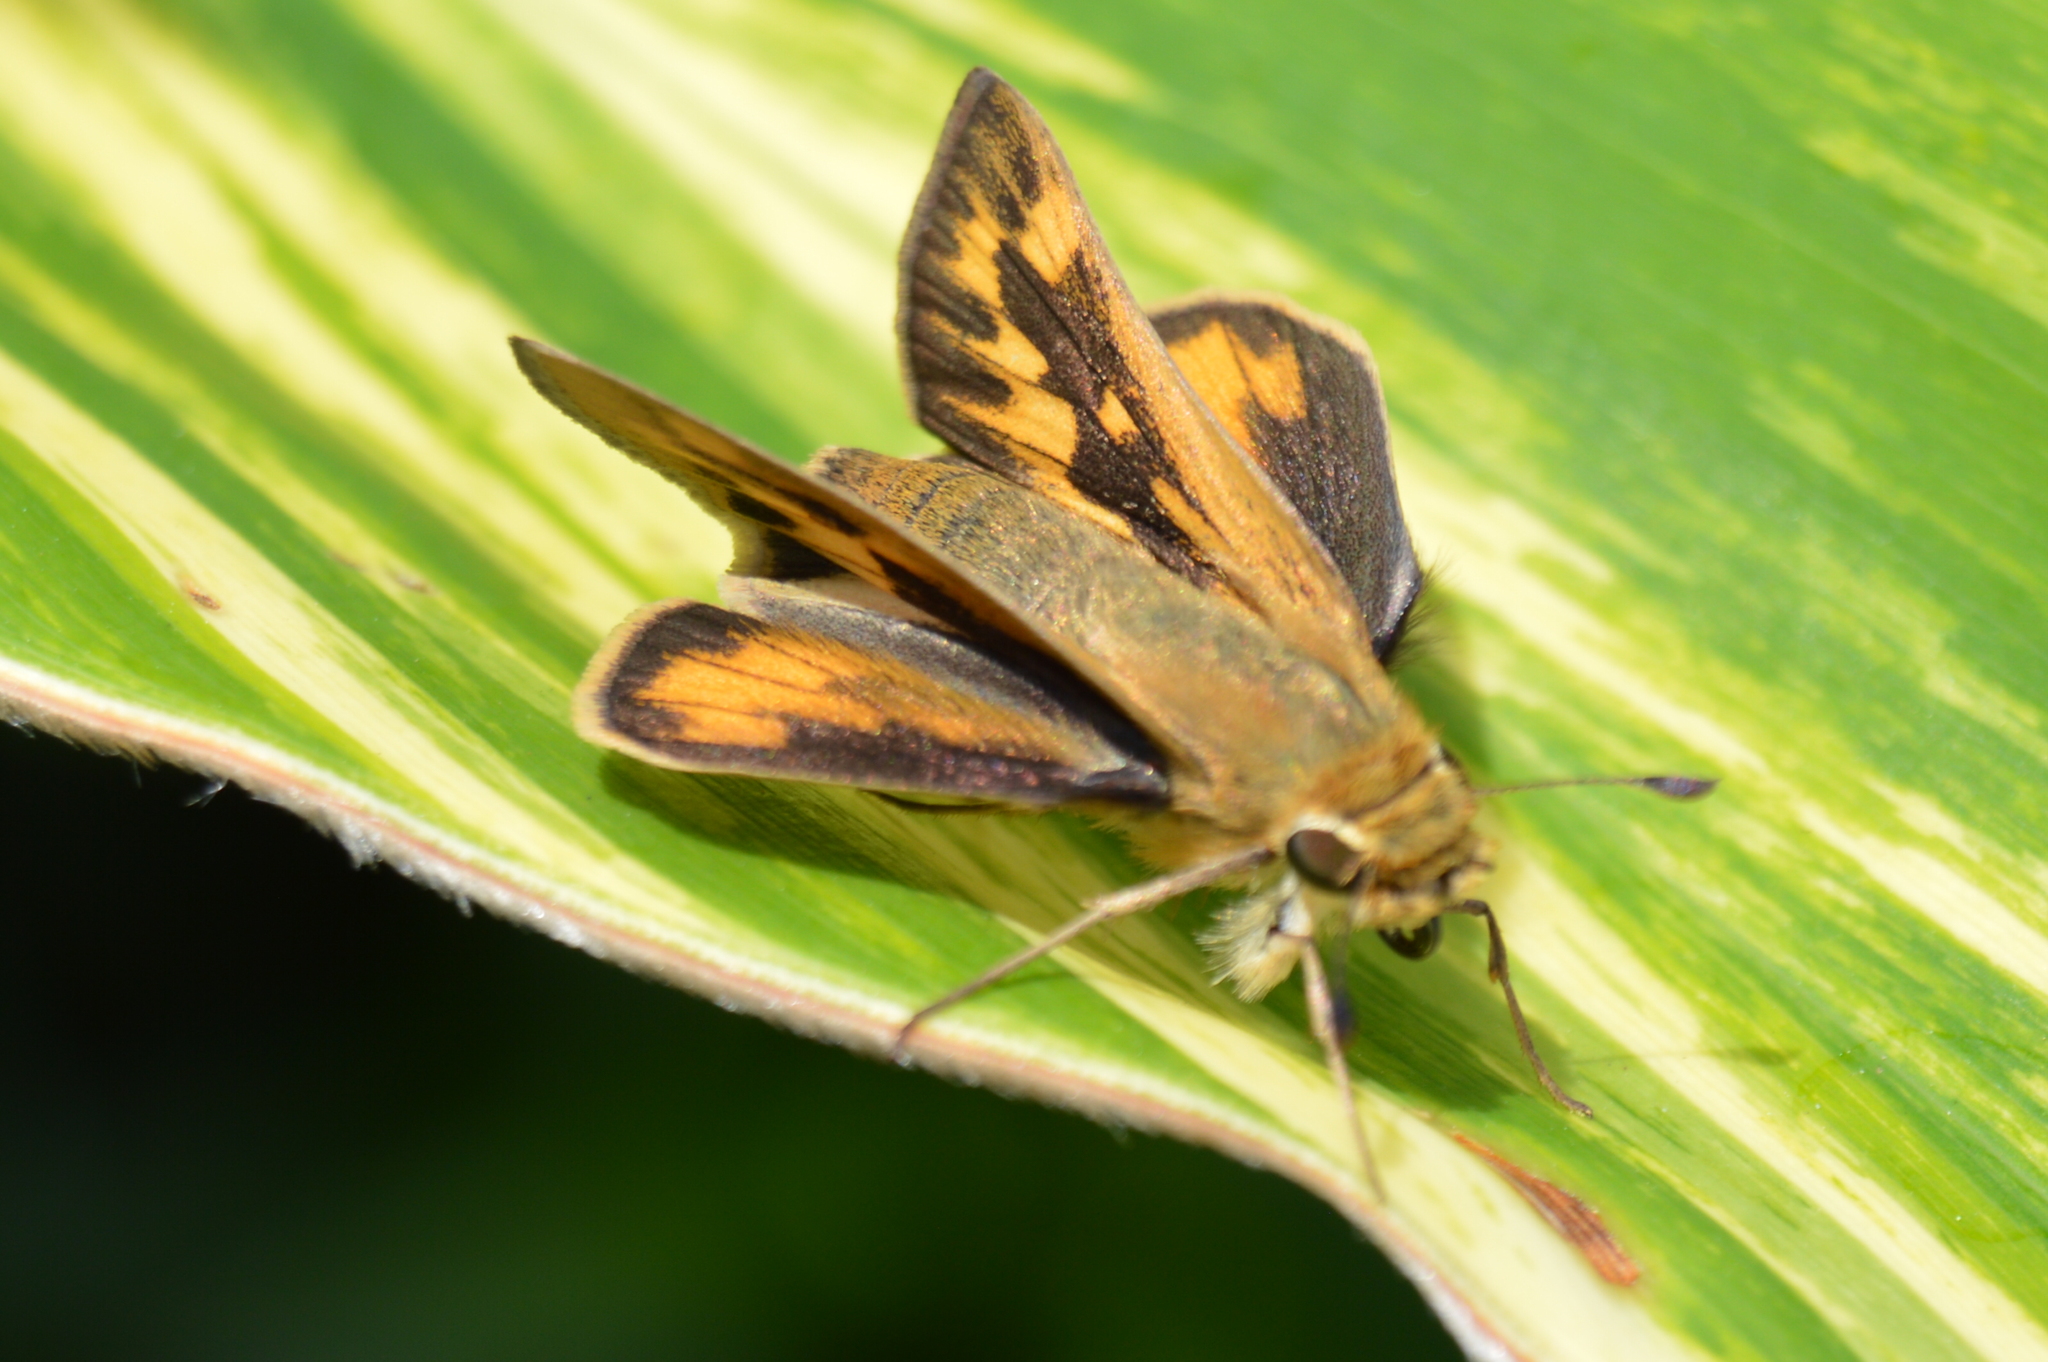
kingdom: Animalia
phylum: Arthropoda
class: Insecta
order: Lepidoptera
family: Hesperiidae
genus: Hylephila
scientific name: Hylephila phyleus
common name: Fiery skipper
